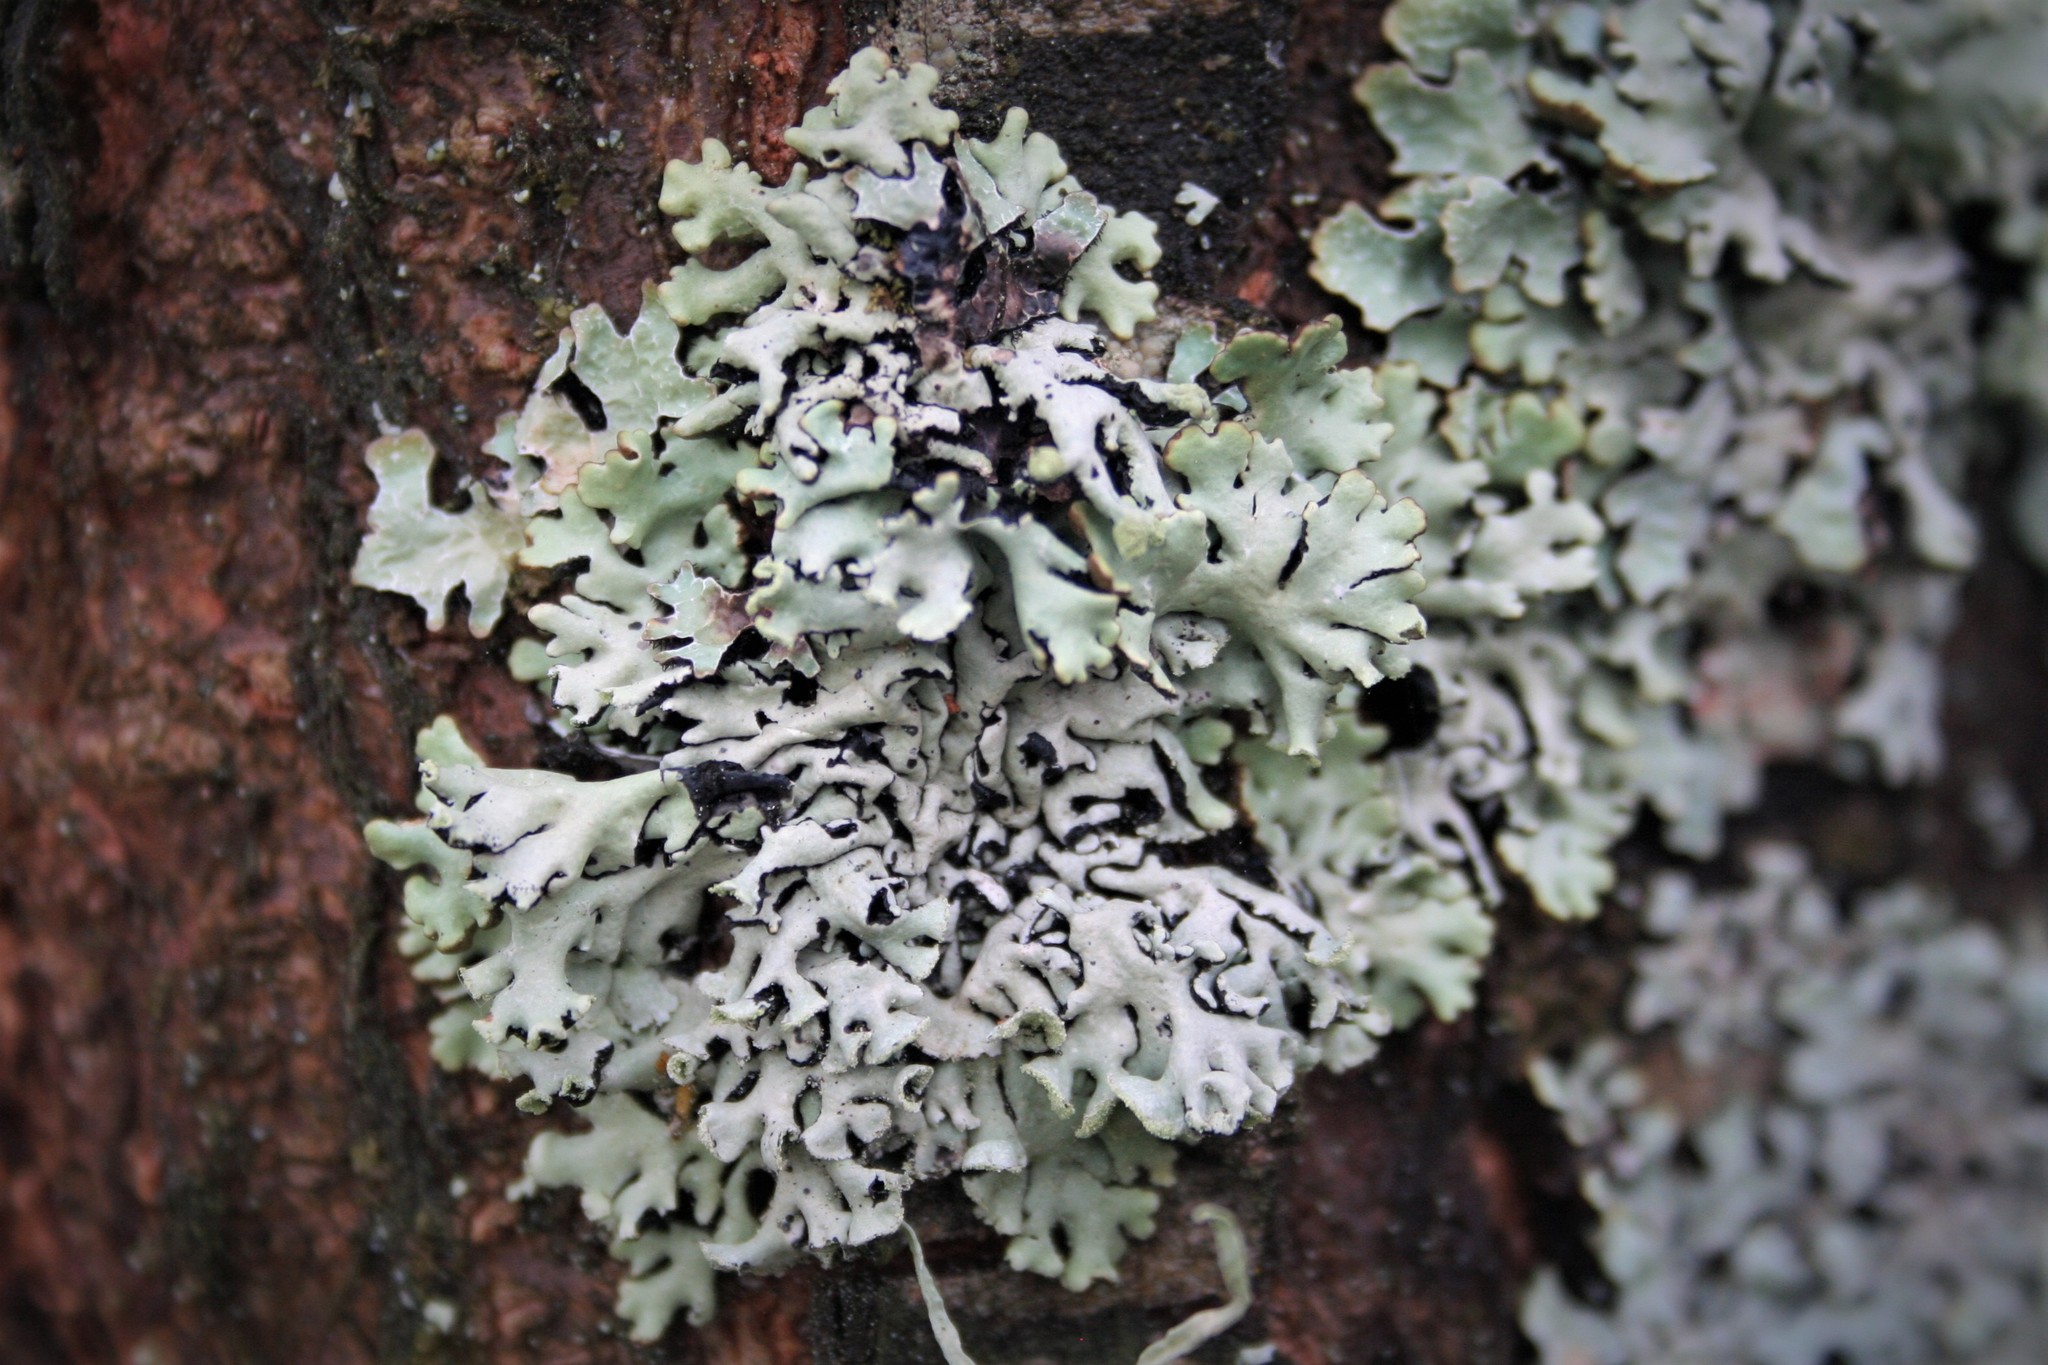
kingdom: Fungi
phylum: Ascomycota
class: Lecanoromycetes
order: Lecanorales
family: Parmeliaceae
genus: Hypogymnia
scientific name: Hypogymnia physodes
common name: Dark crottle
